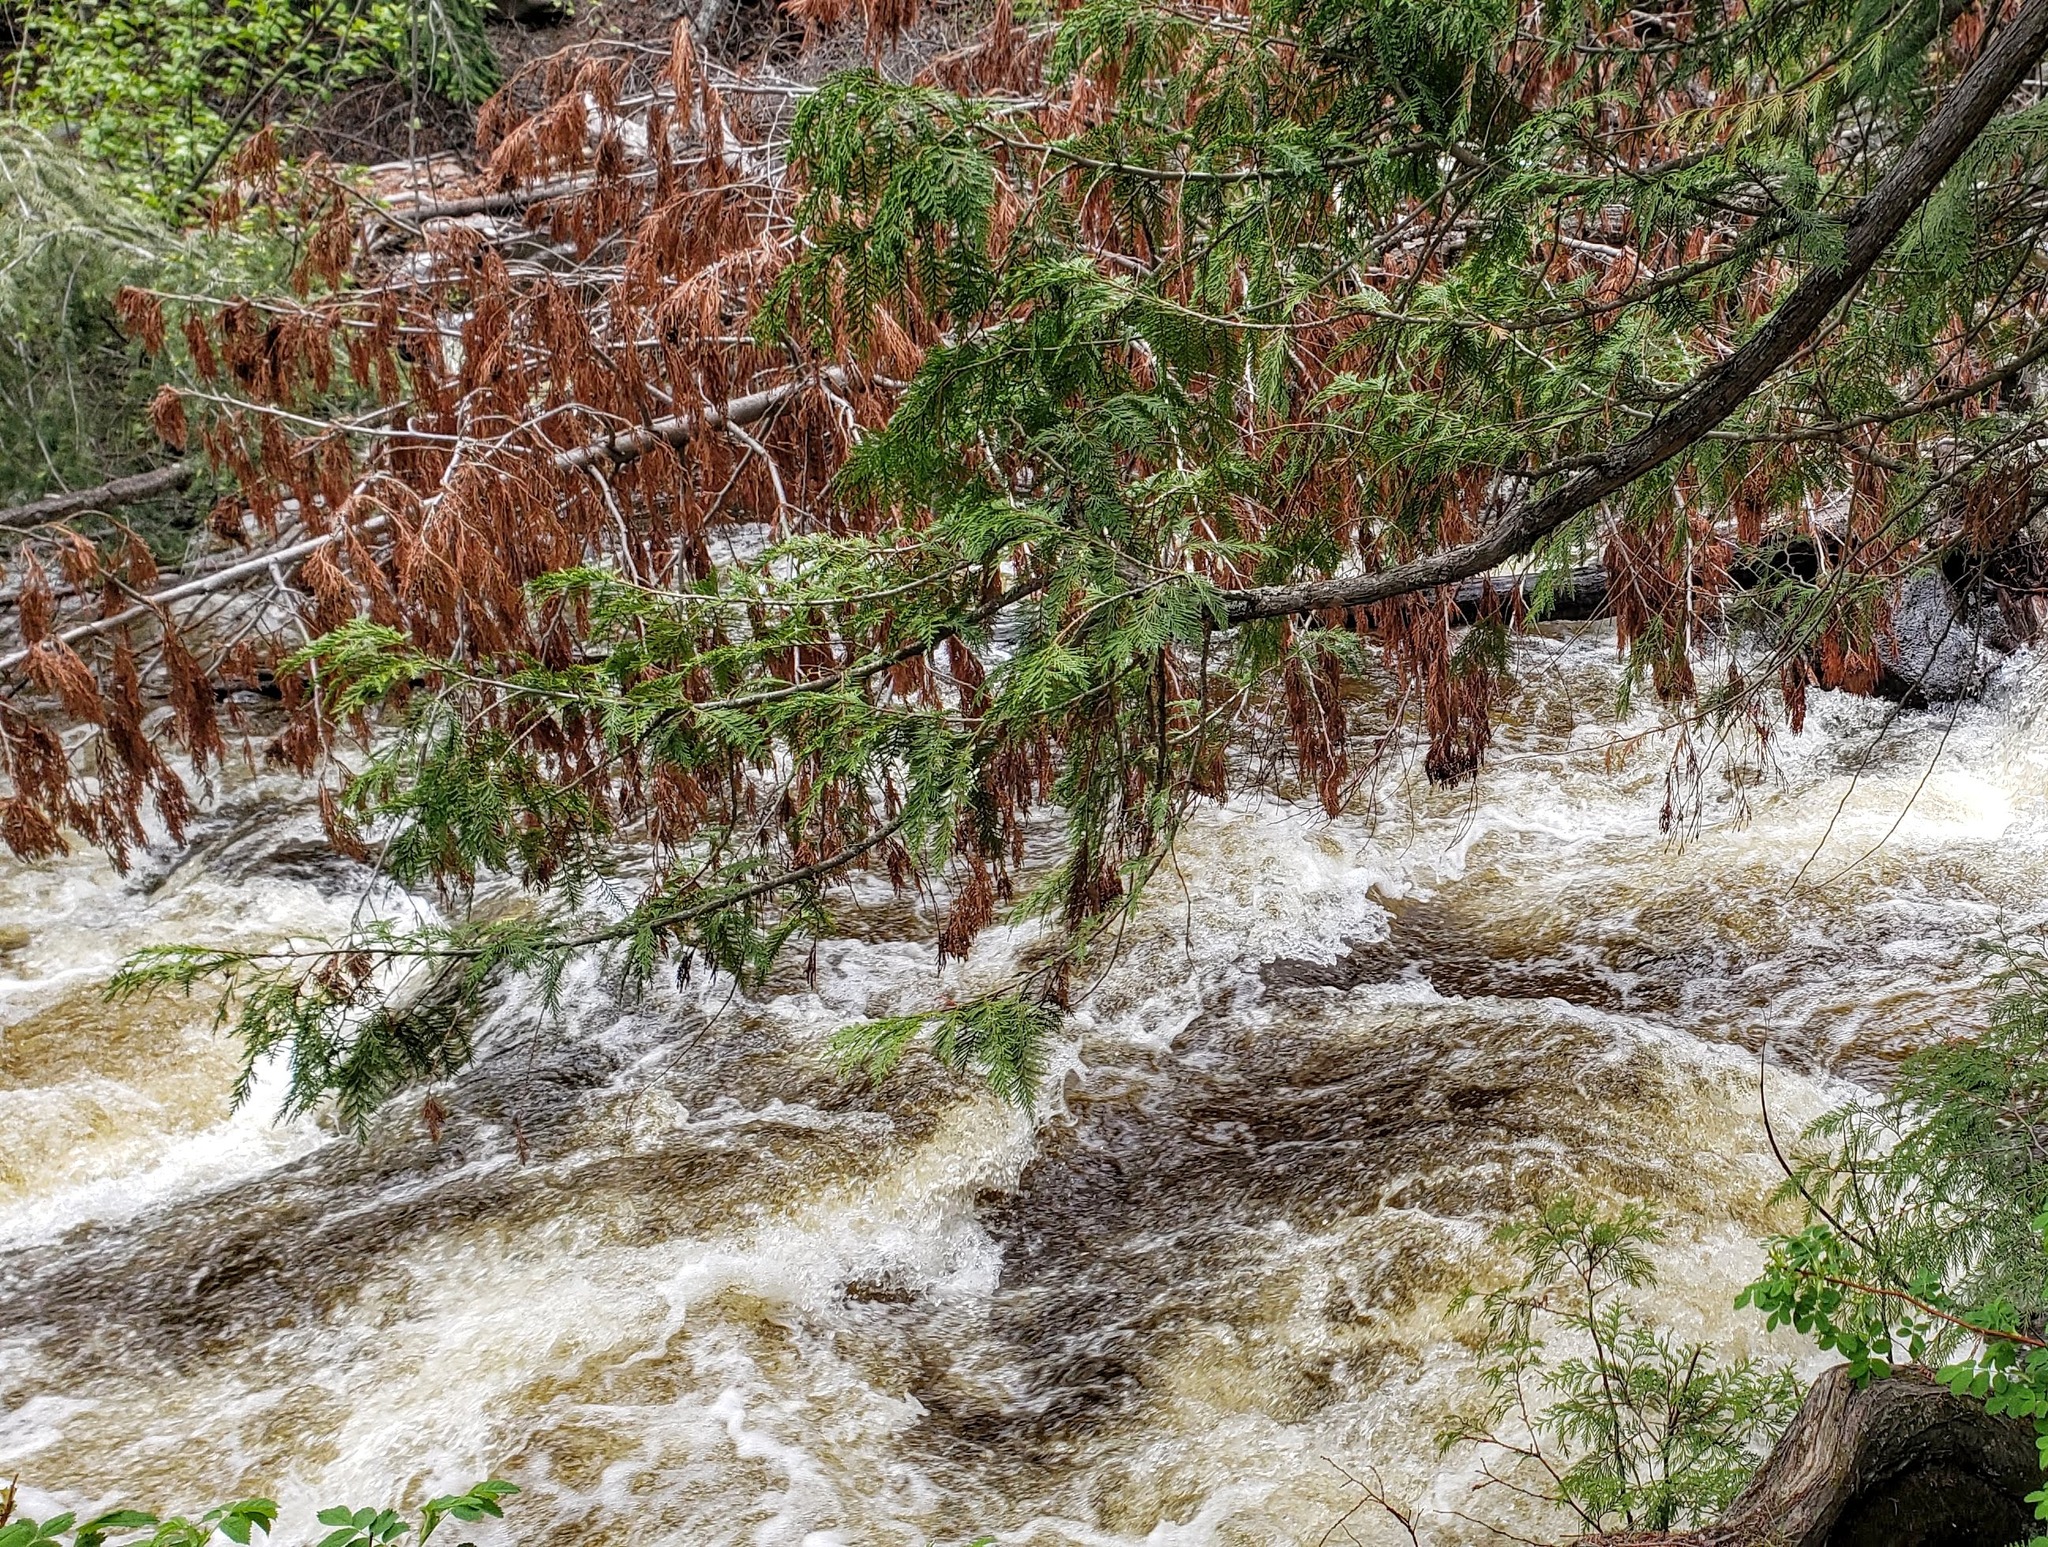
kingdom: Plantae
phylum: Tracheophyta
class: Pinopsida
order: Pinales
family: Cupressaceae
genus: Thuja
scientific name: Thuja plicata
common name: Western red-cedar
